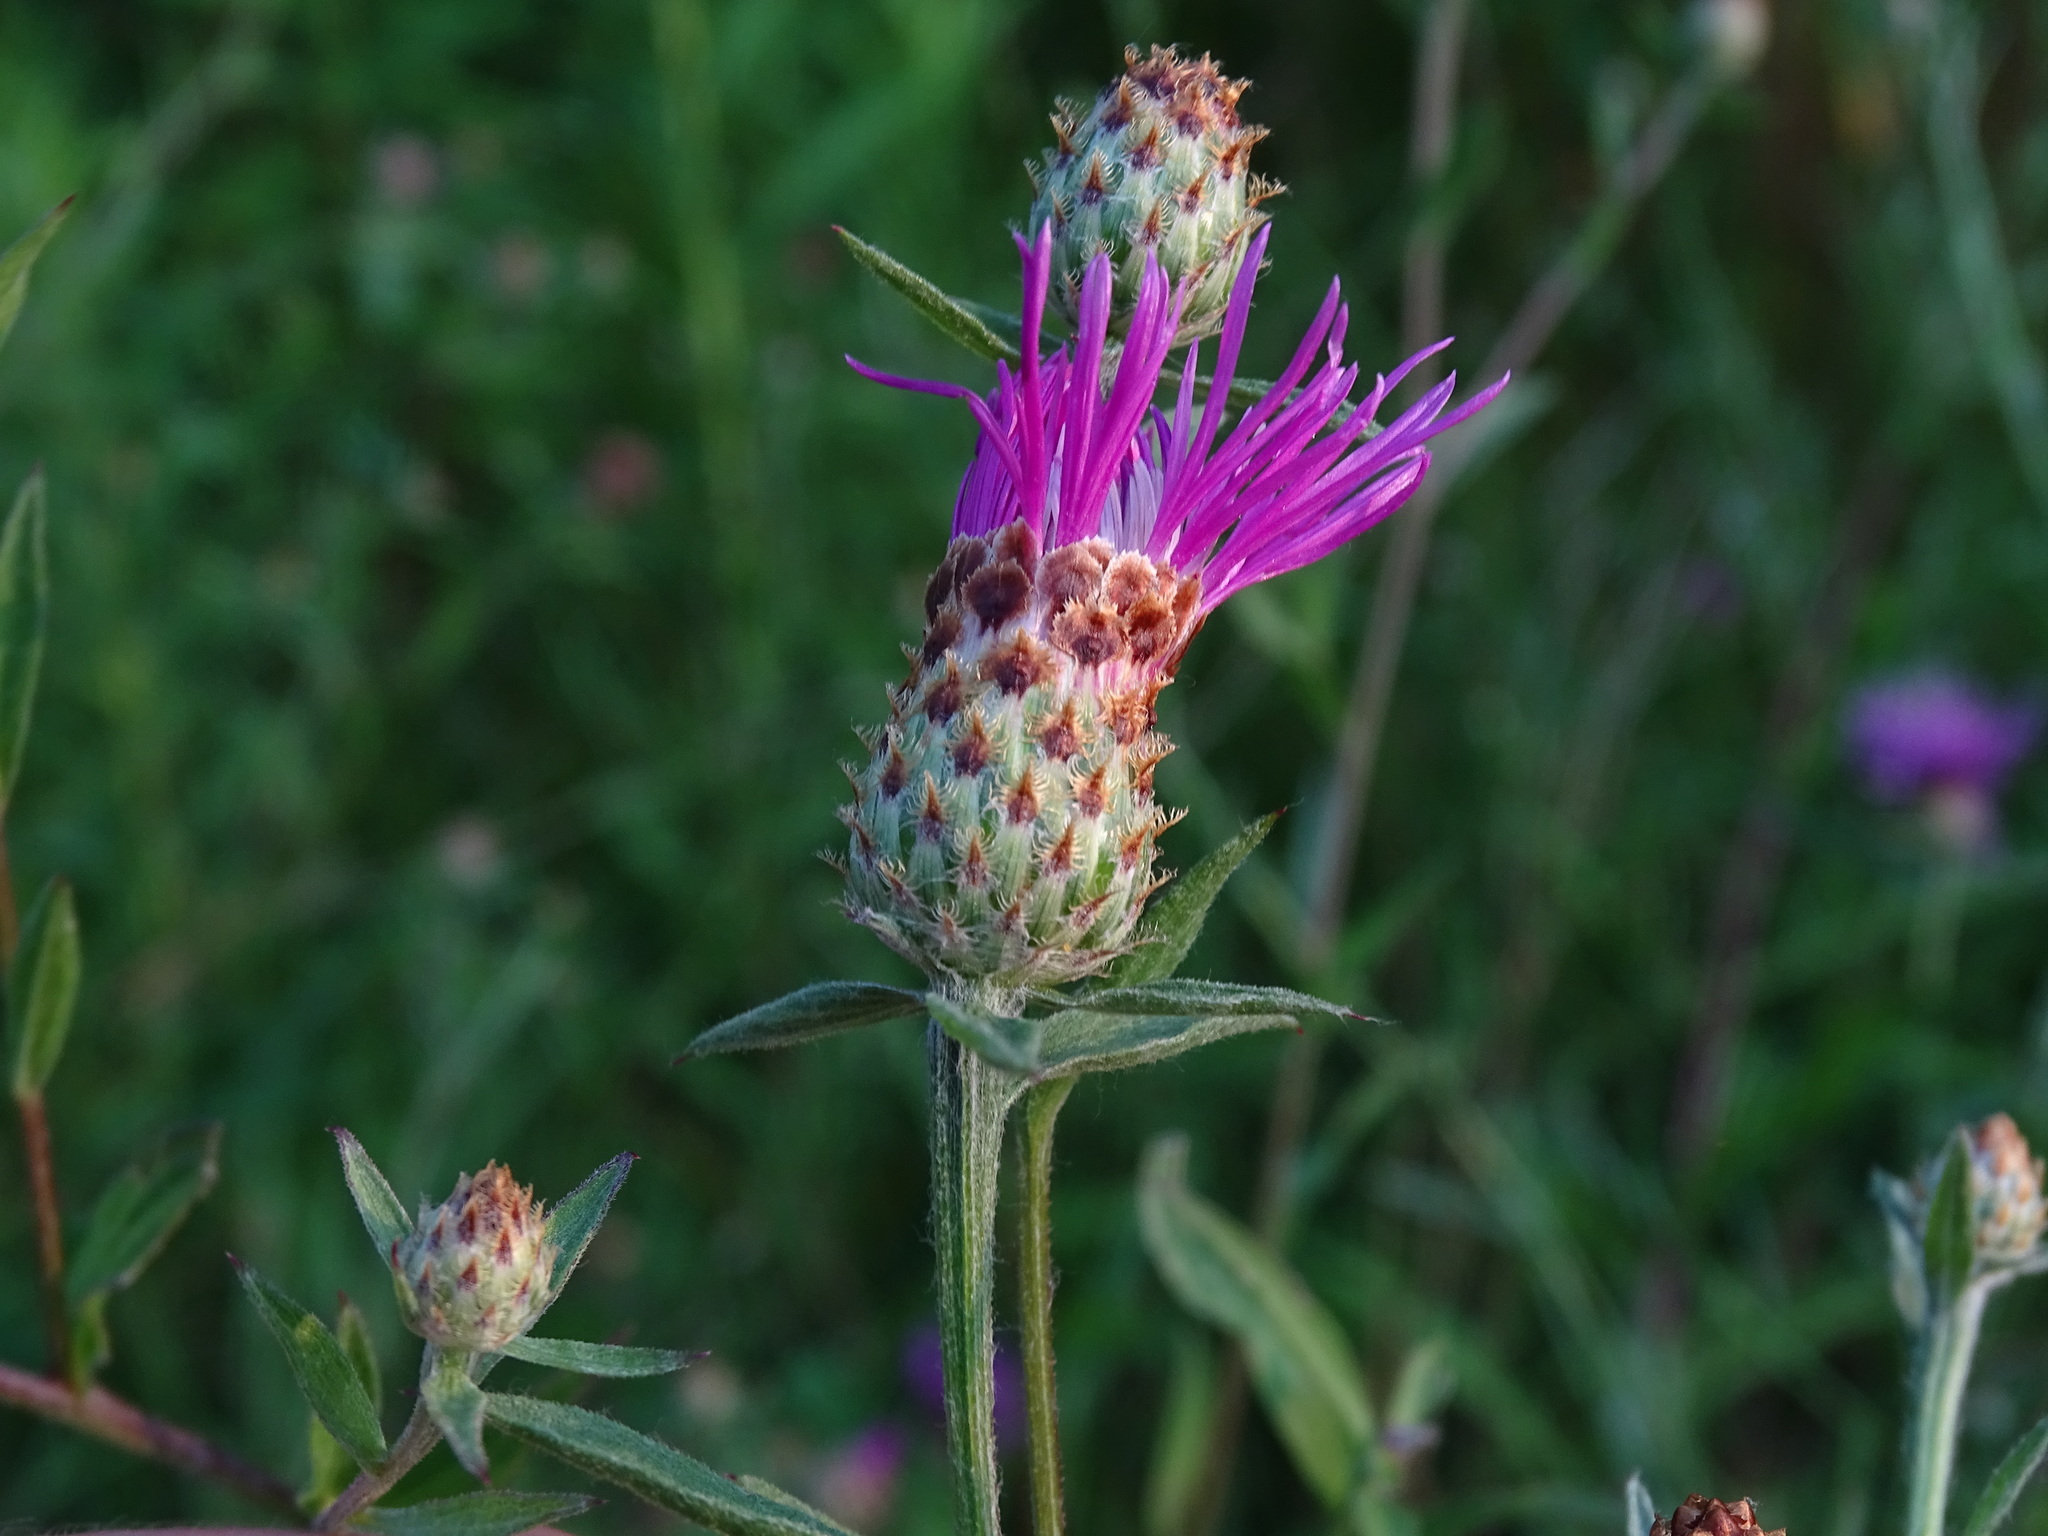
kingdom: Plantae
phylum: Tracheophyta
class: Magnoliopsida
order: Asterales
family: Asteraceae
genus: Centaurea
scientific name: Centaurea nigrescens
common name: Tyrol knapweed
